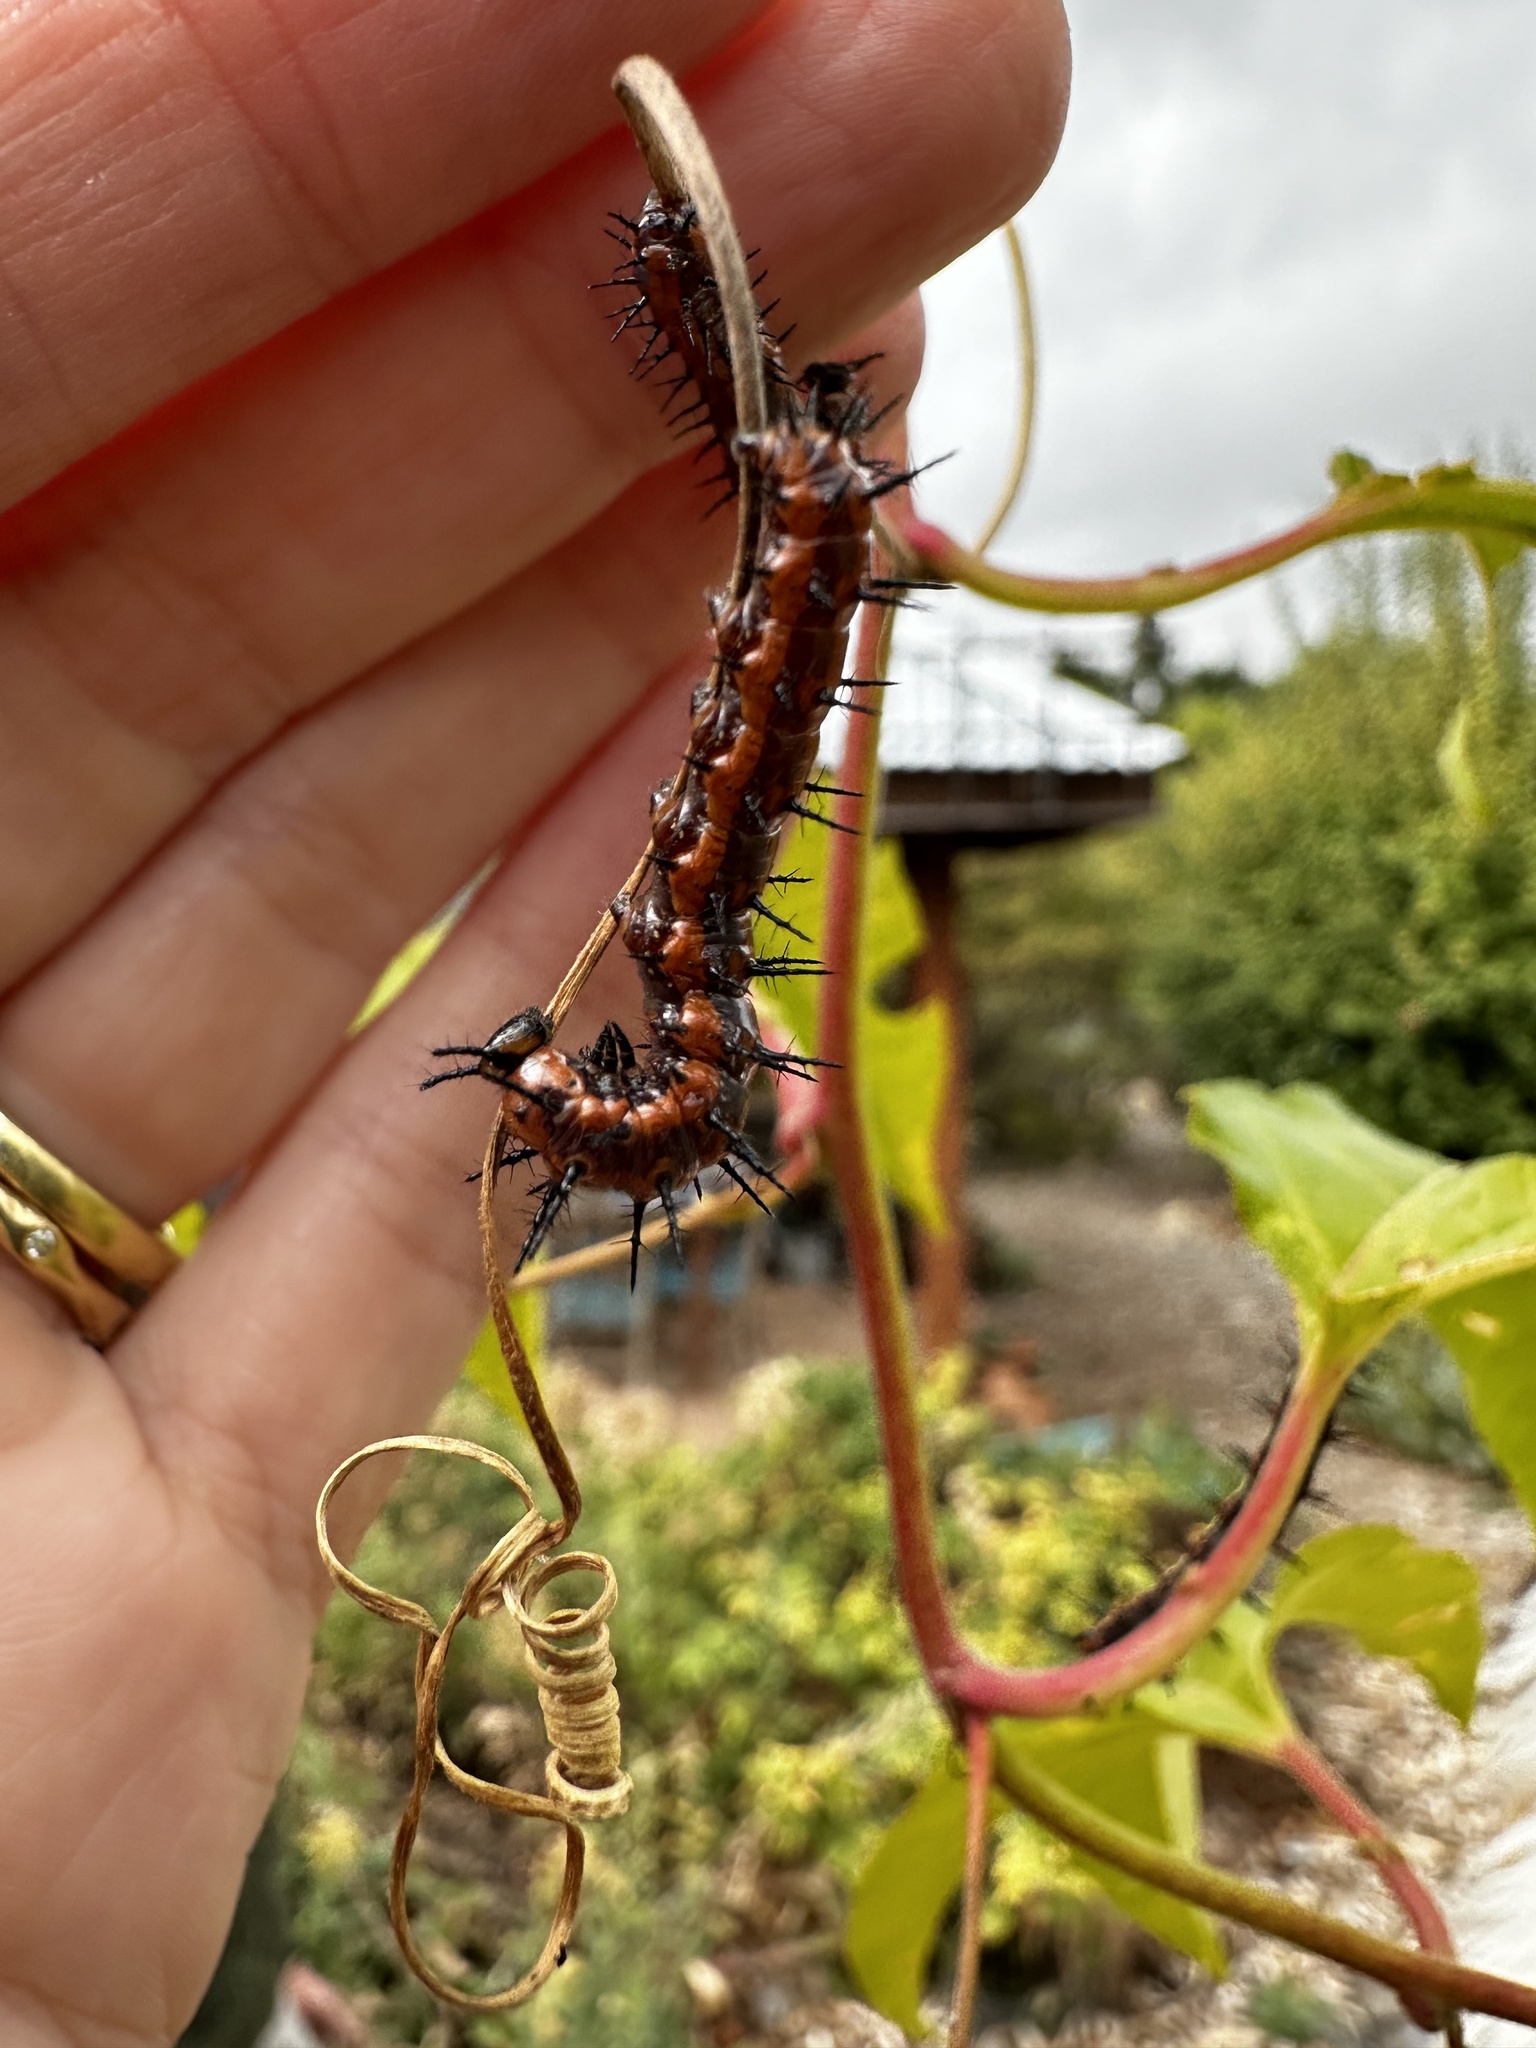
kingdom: Animalia
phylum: Arthropoda
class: Insecta
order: Lepidoptera
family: Nymphalidae
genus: Dione
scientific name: Dione vanillae
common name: Gulf fritillary
